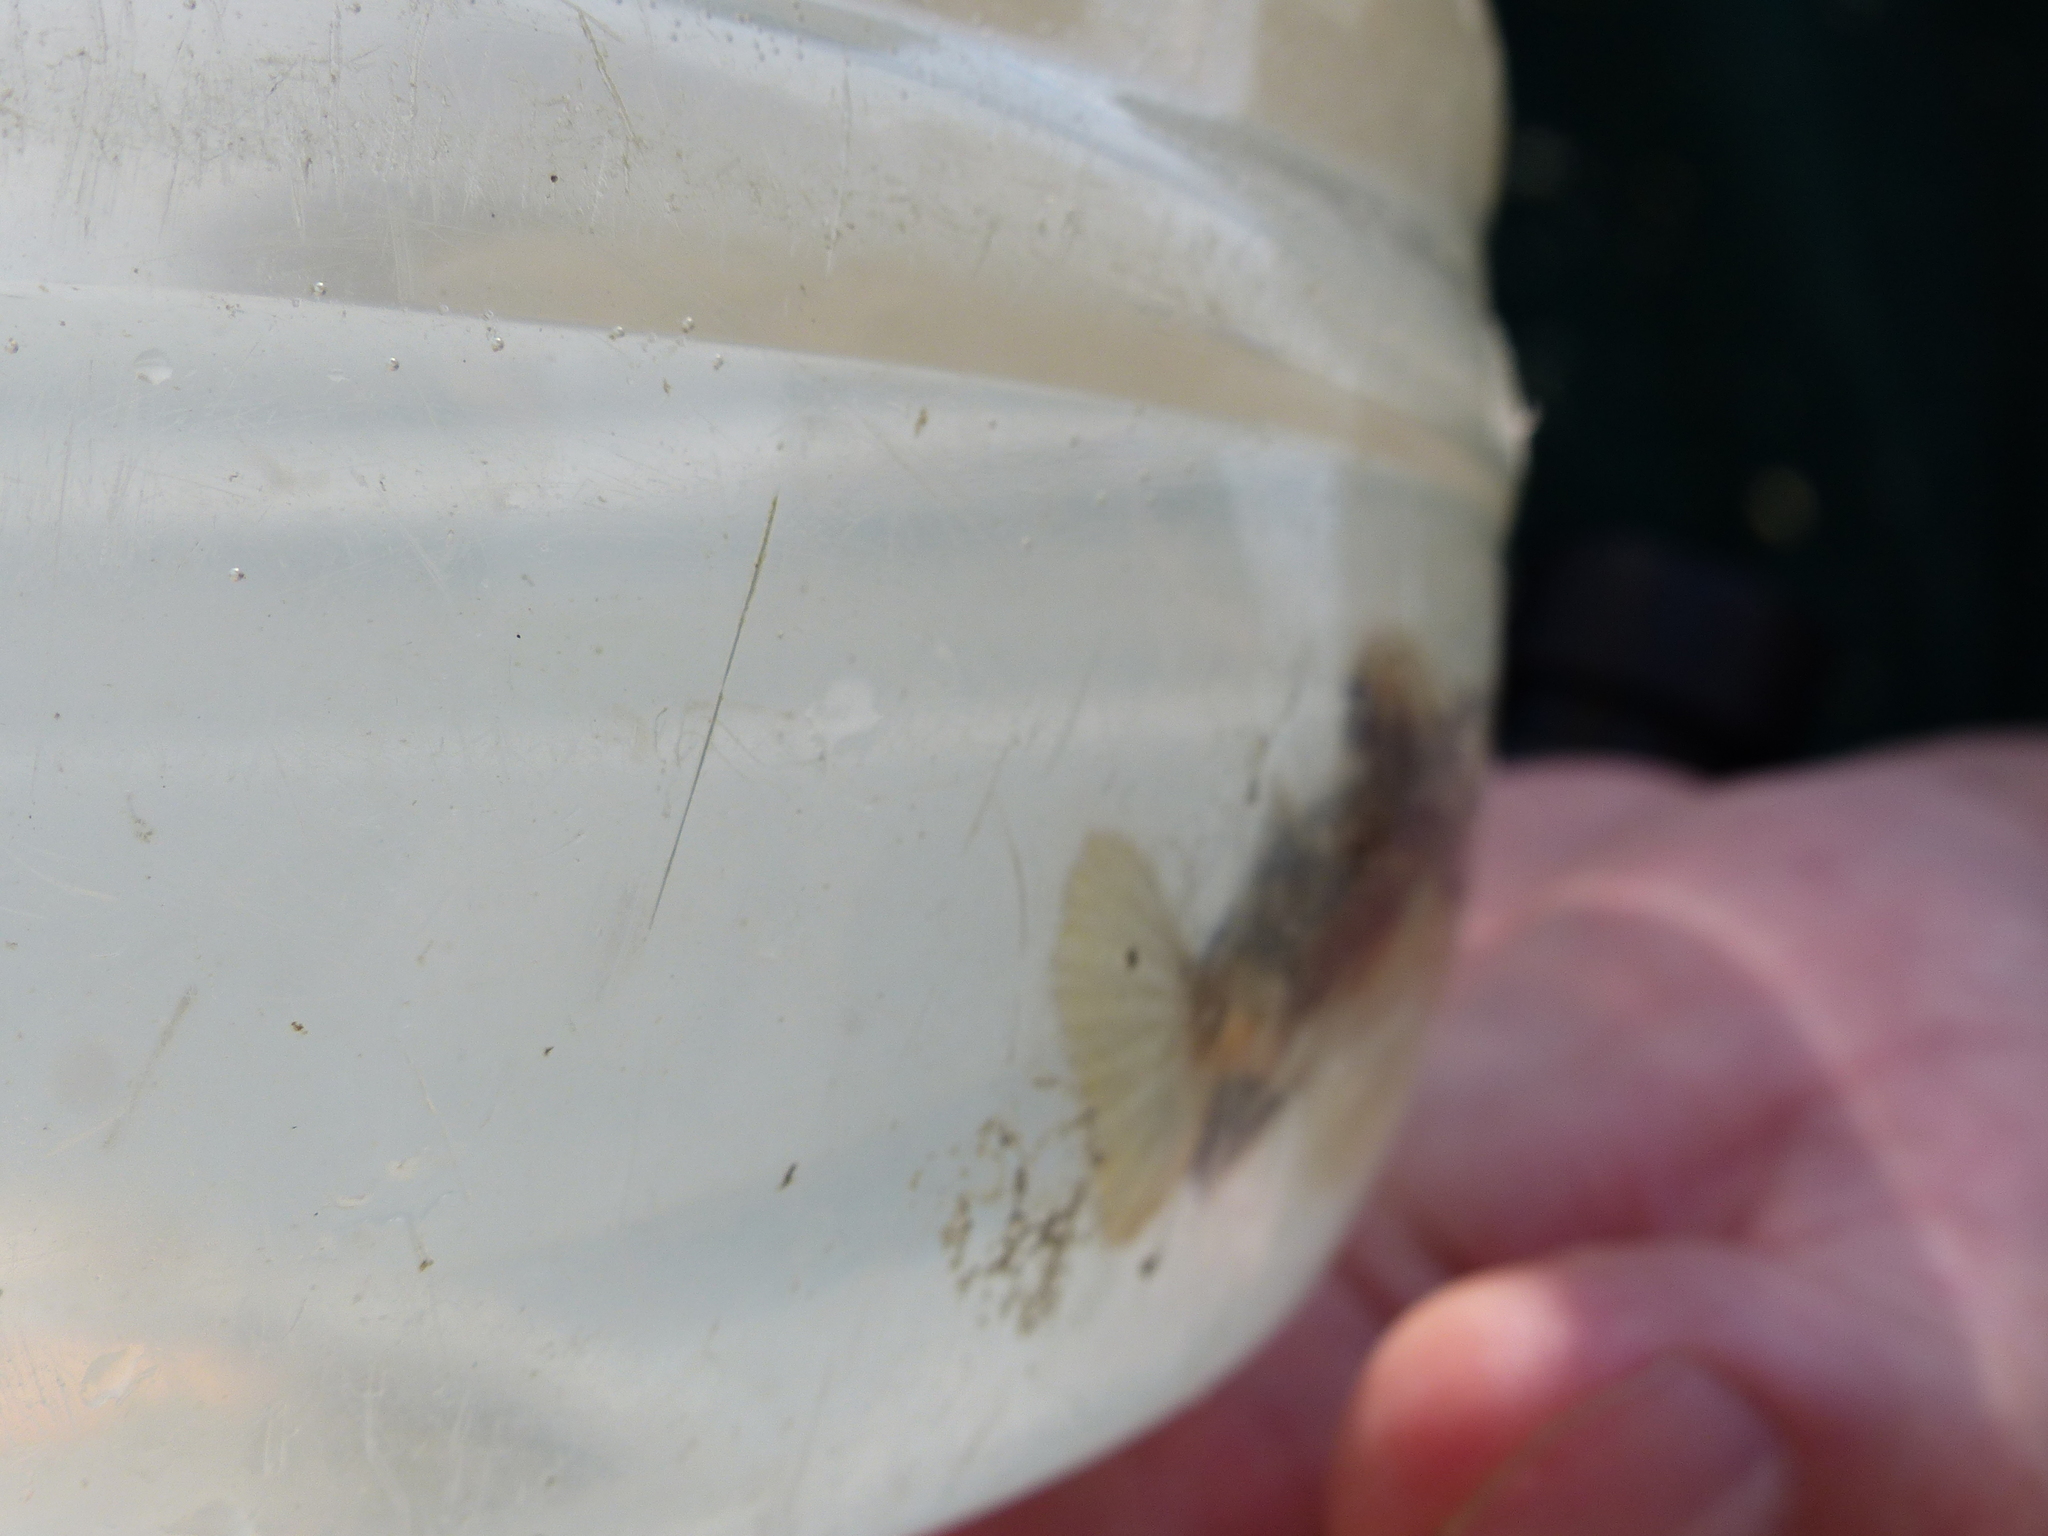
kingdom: Animalia
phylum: Chordata
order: Scorpaeniformes
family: Triglidae
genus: Prionotus
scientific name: Prionotus
